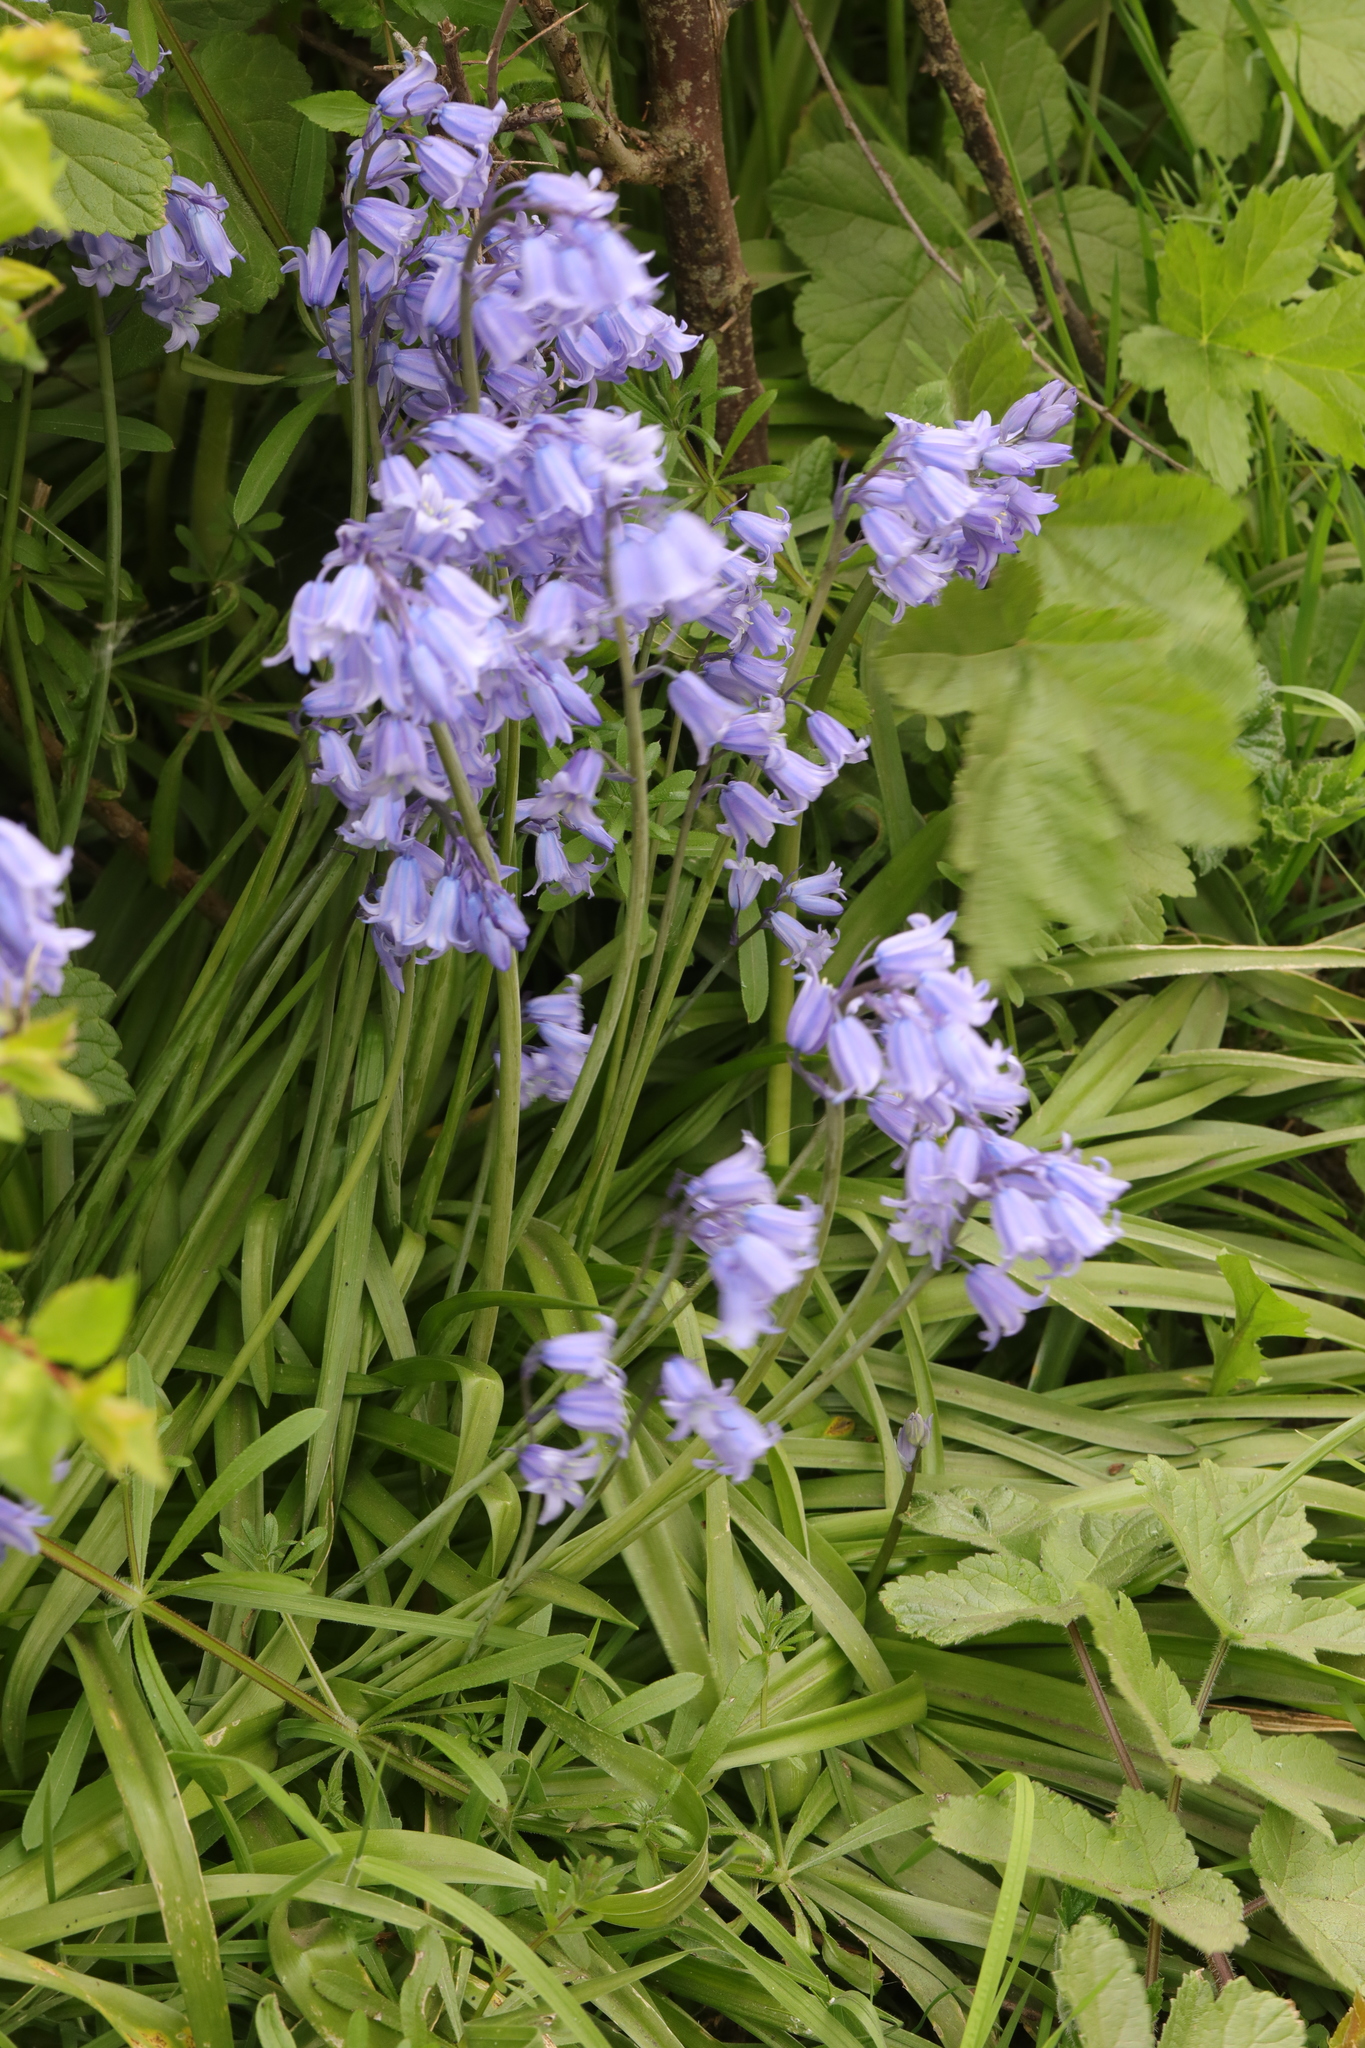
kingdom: Plantae
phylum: Tracheophyta
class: Liliopsida
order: Asparagales
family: Asparagaceae
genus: Hyacinthoides
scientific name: Hyacinthoides hispanica
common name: Spanish bluebell
